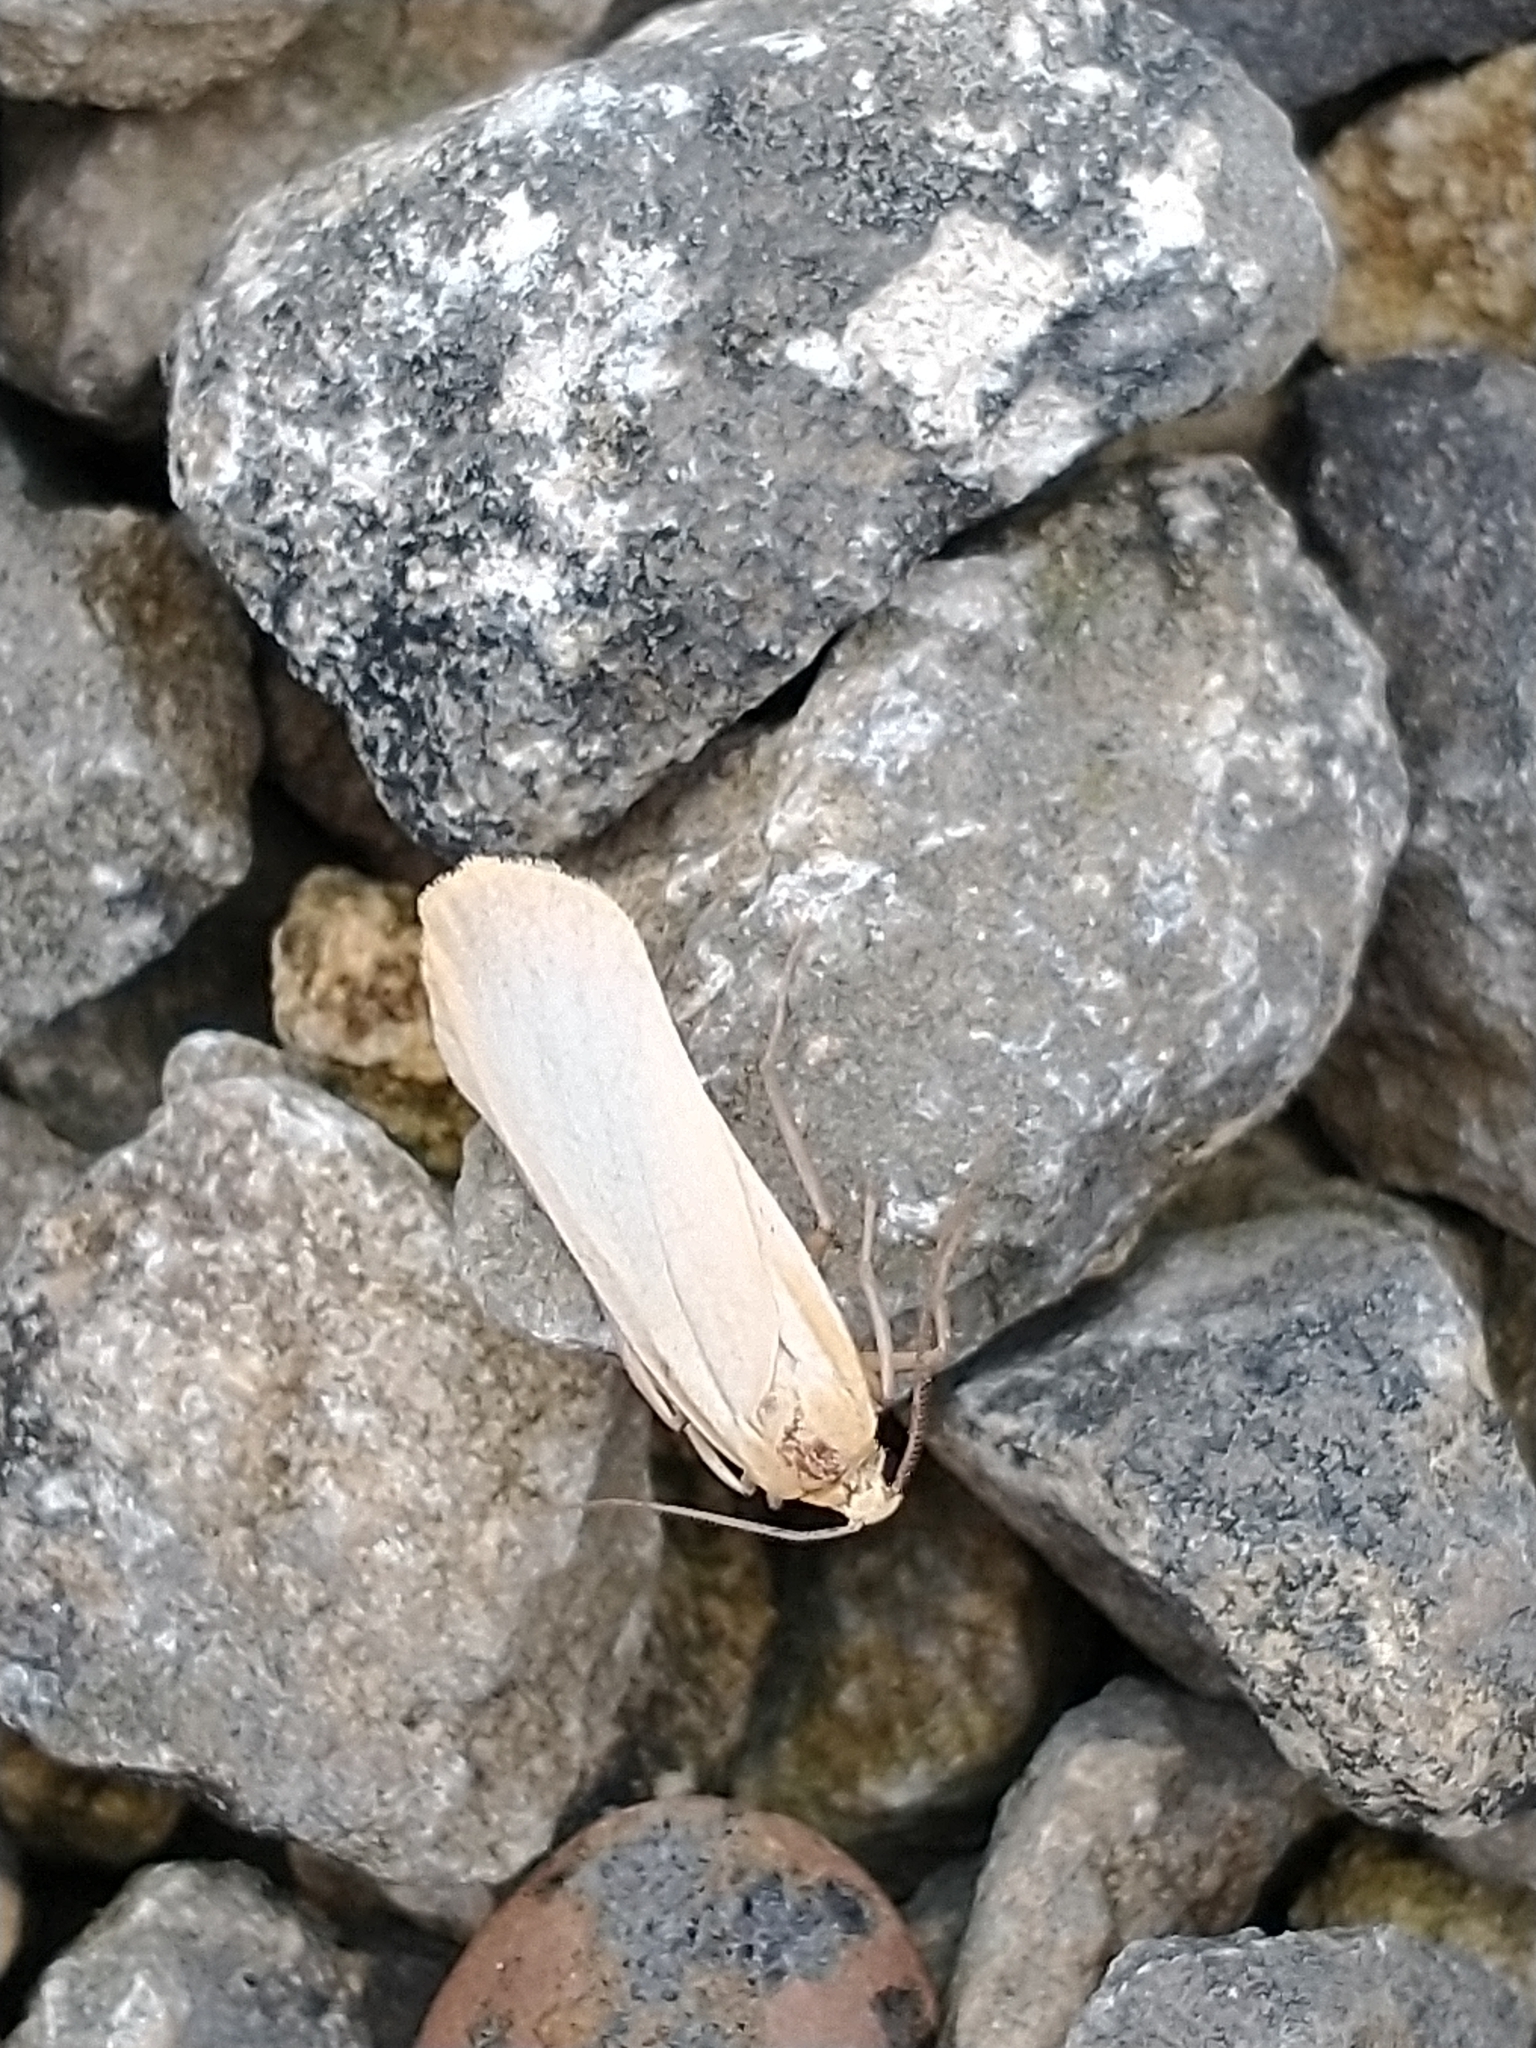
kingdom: Animalia
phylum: Arthropoda
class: Insecta
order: Lepidoptera
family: Erebidae
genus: Katha
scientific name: Katha depressa
